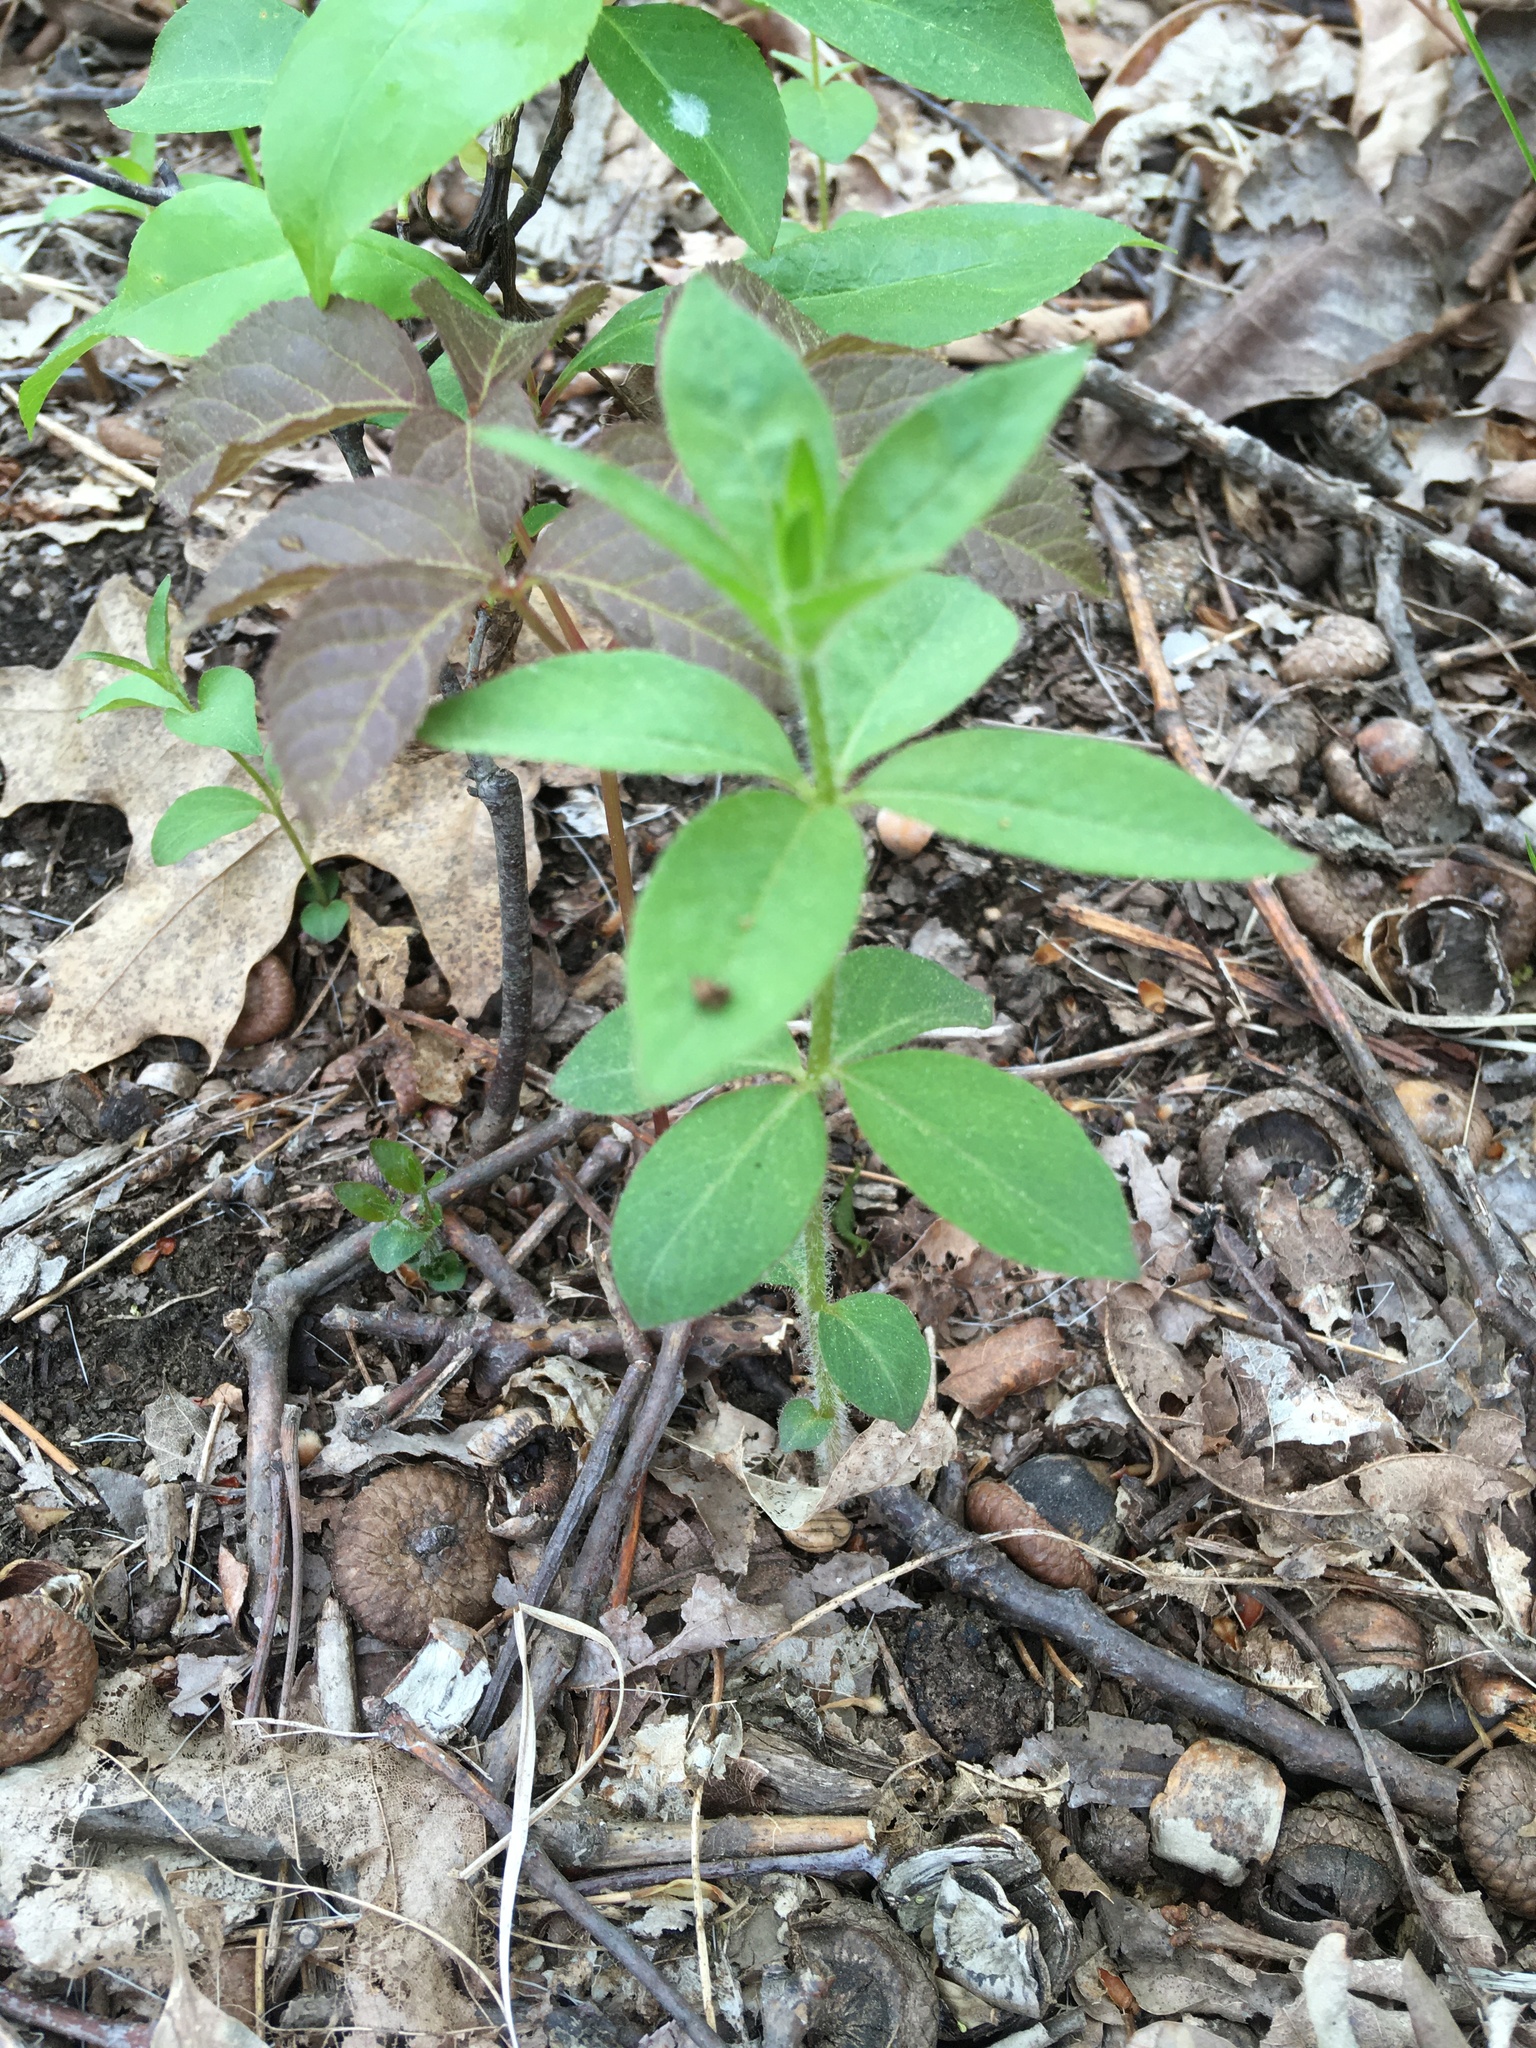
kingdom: Plantae
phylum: Tracheophyta
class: Magnoliopsida
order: Ericales
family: Primulaceae
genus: Lysimachia
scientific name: Lysimachia quadrifolia
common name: Whorled loosestrife
